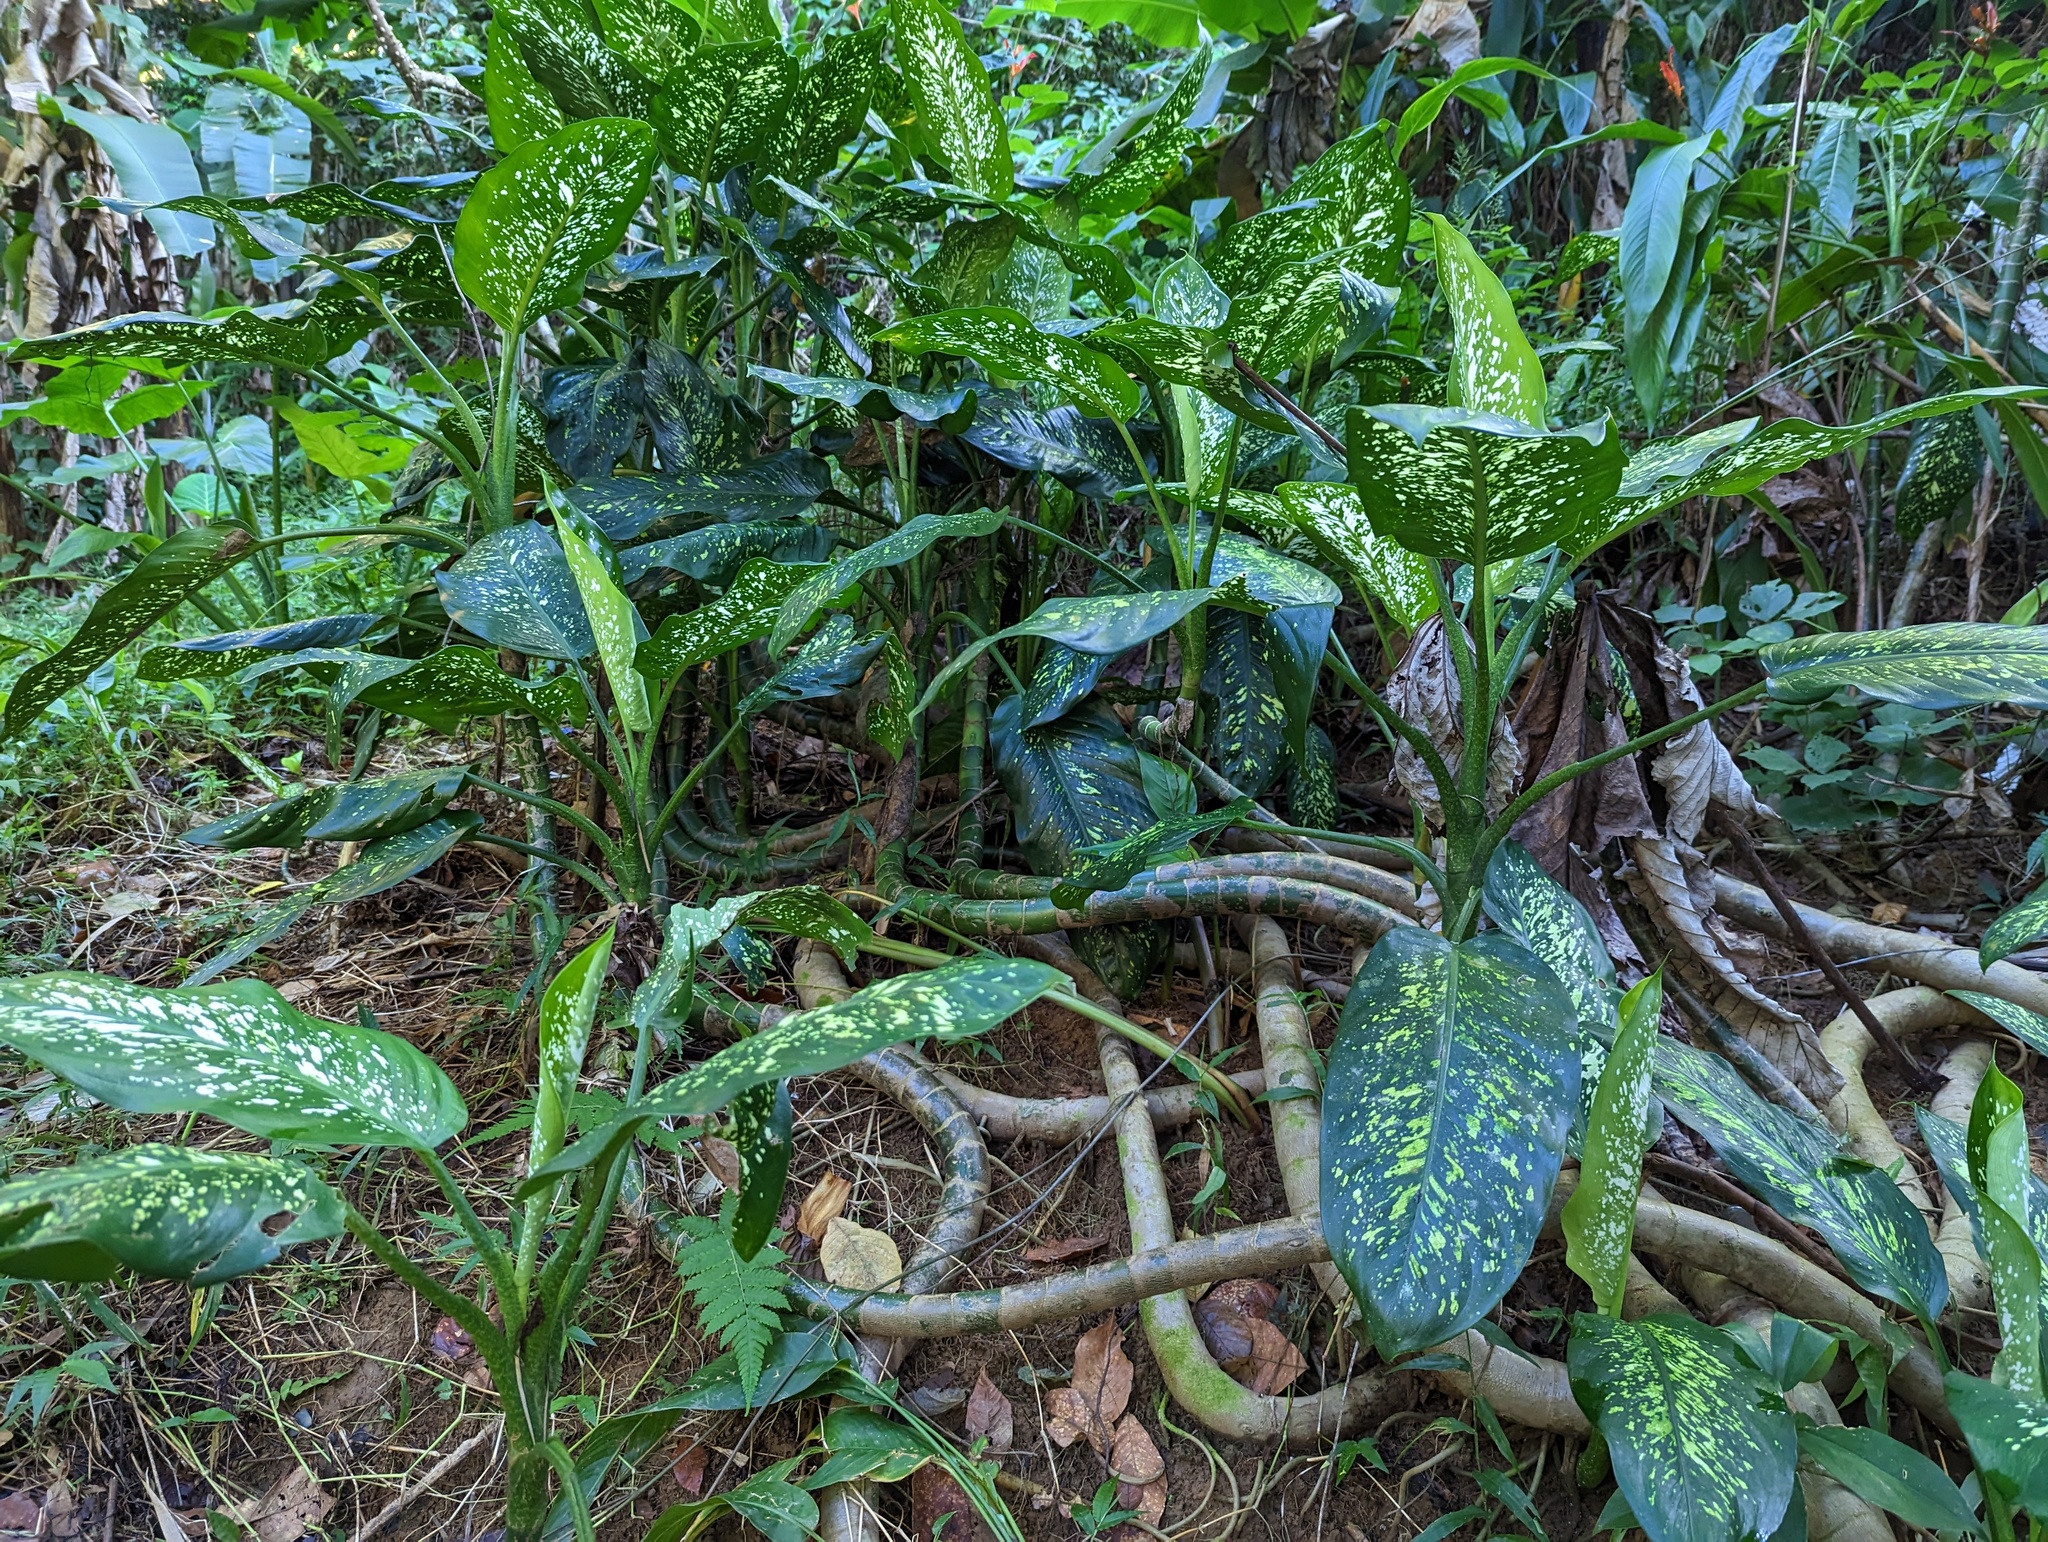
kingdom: Plantae
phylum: Tracheophyta
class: Liliopsida
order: Alismatales
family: Araceae
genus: Dieffenbachia
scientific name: Dieffenbachia seguine
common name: Dumbcane
